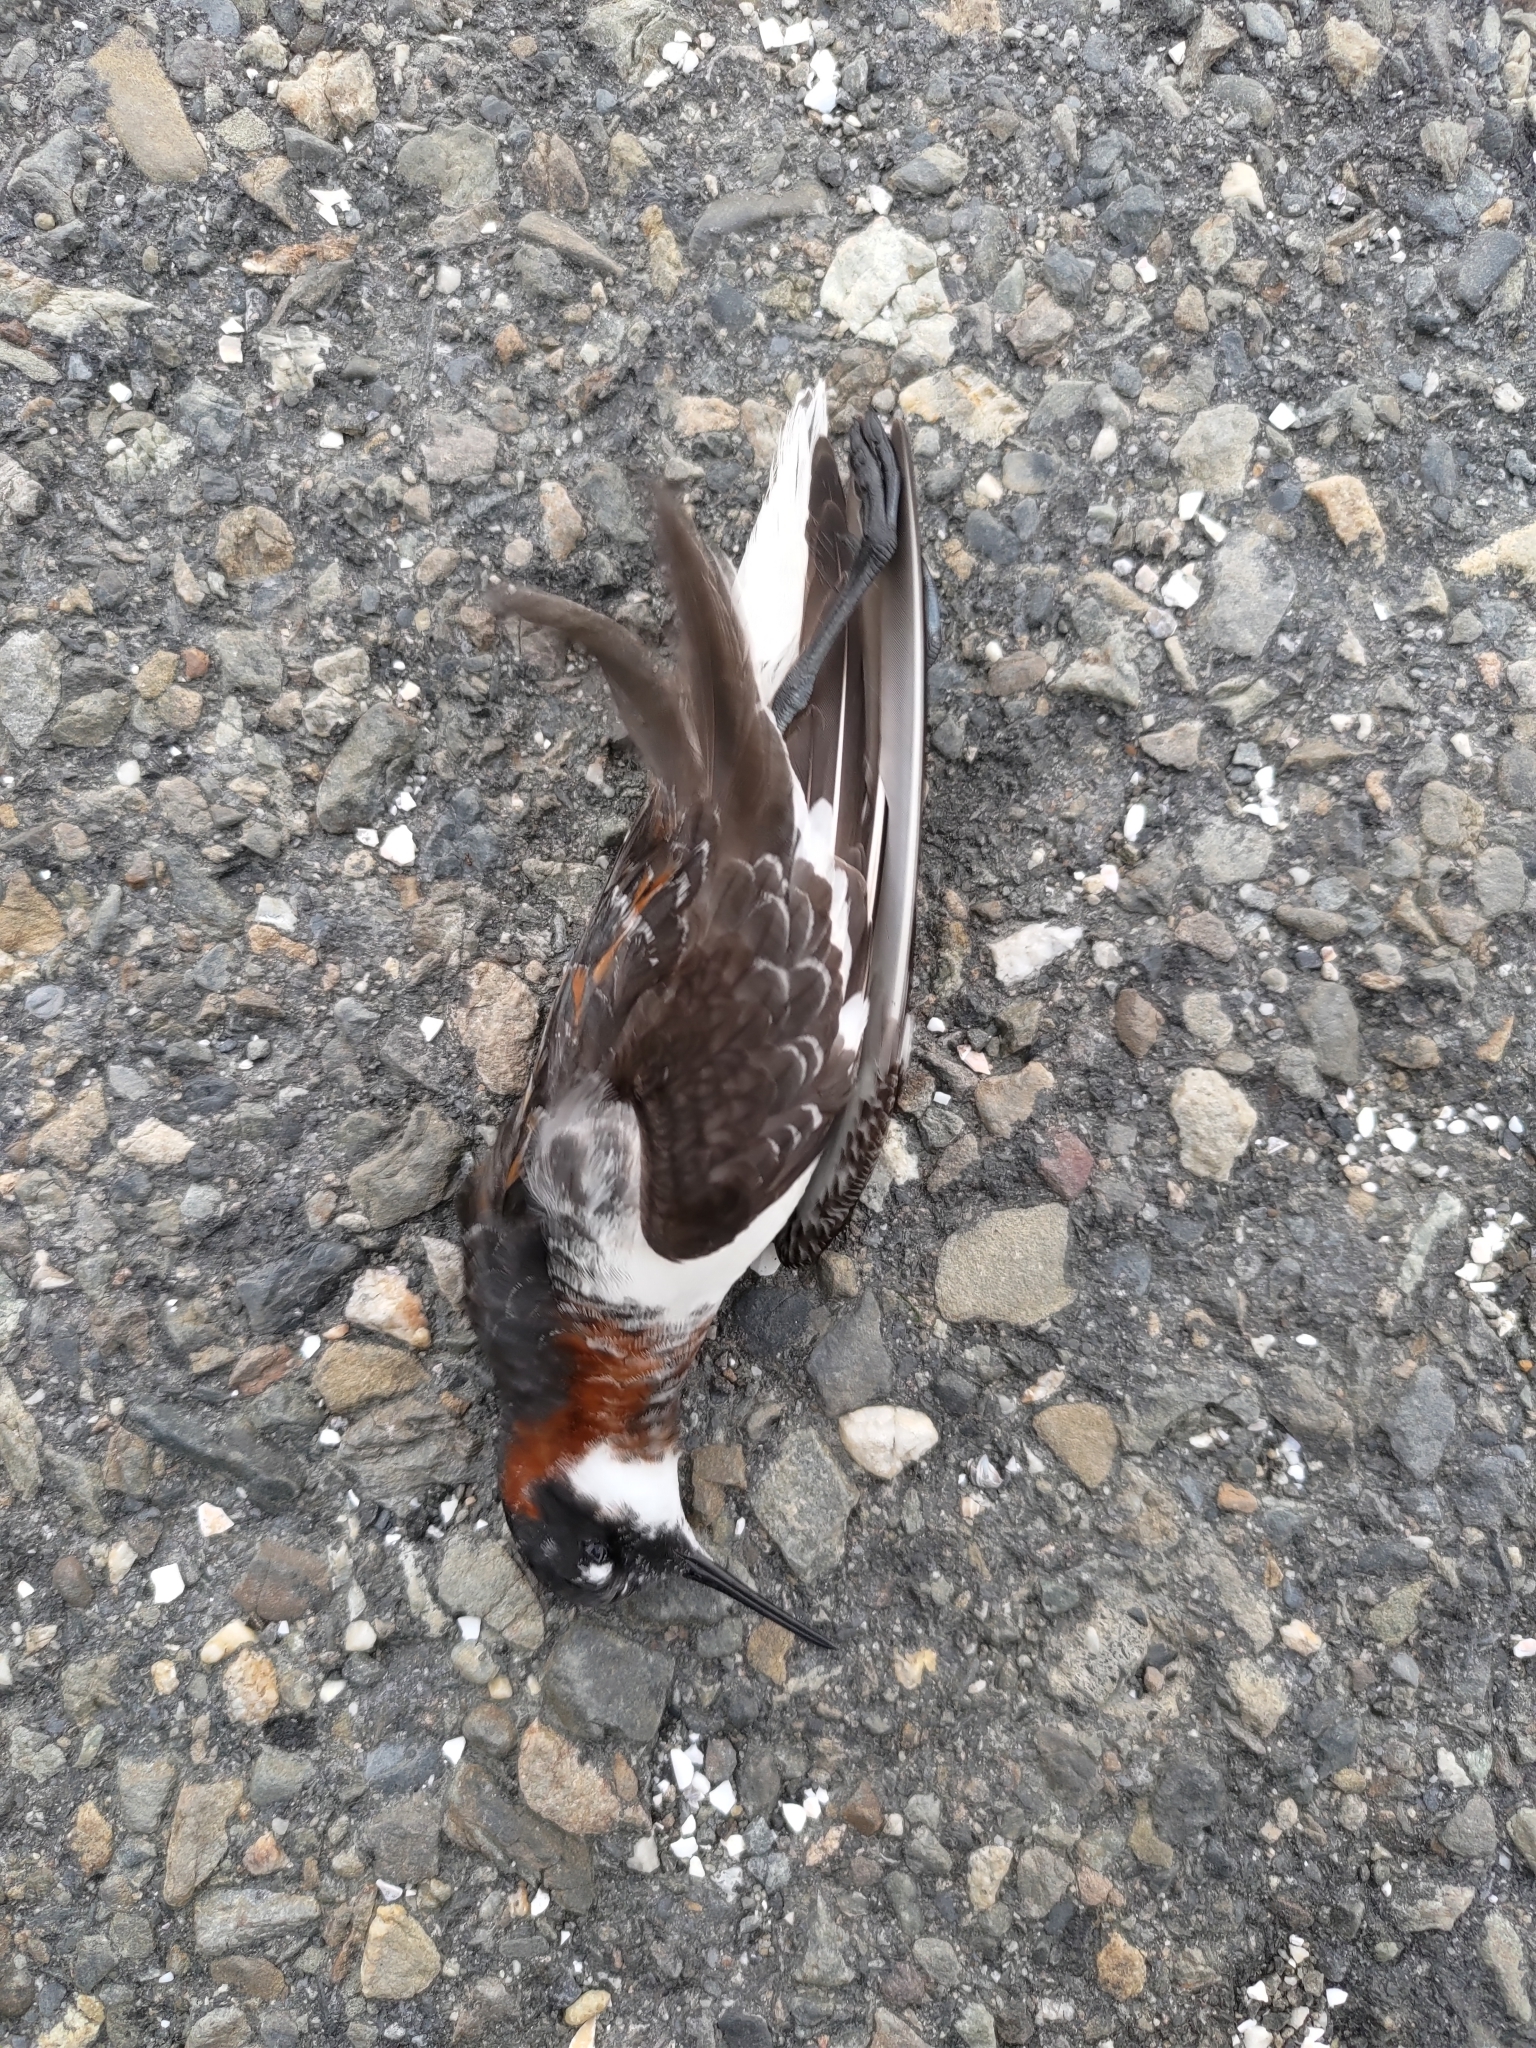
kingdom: Animalia
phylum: Chordata
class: Aves
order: Charadriiformes
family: Scolopacidae
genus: Phalaropus
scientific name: Phalaropus lobatus
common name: Red-necked phalarope
